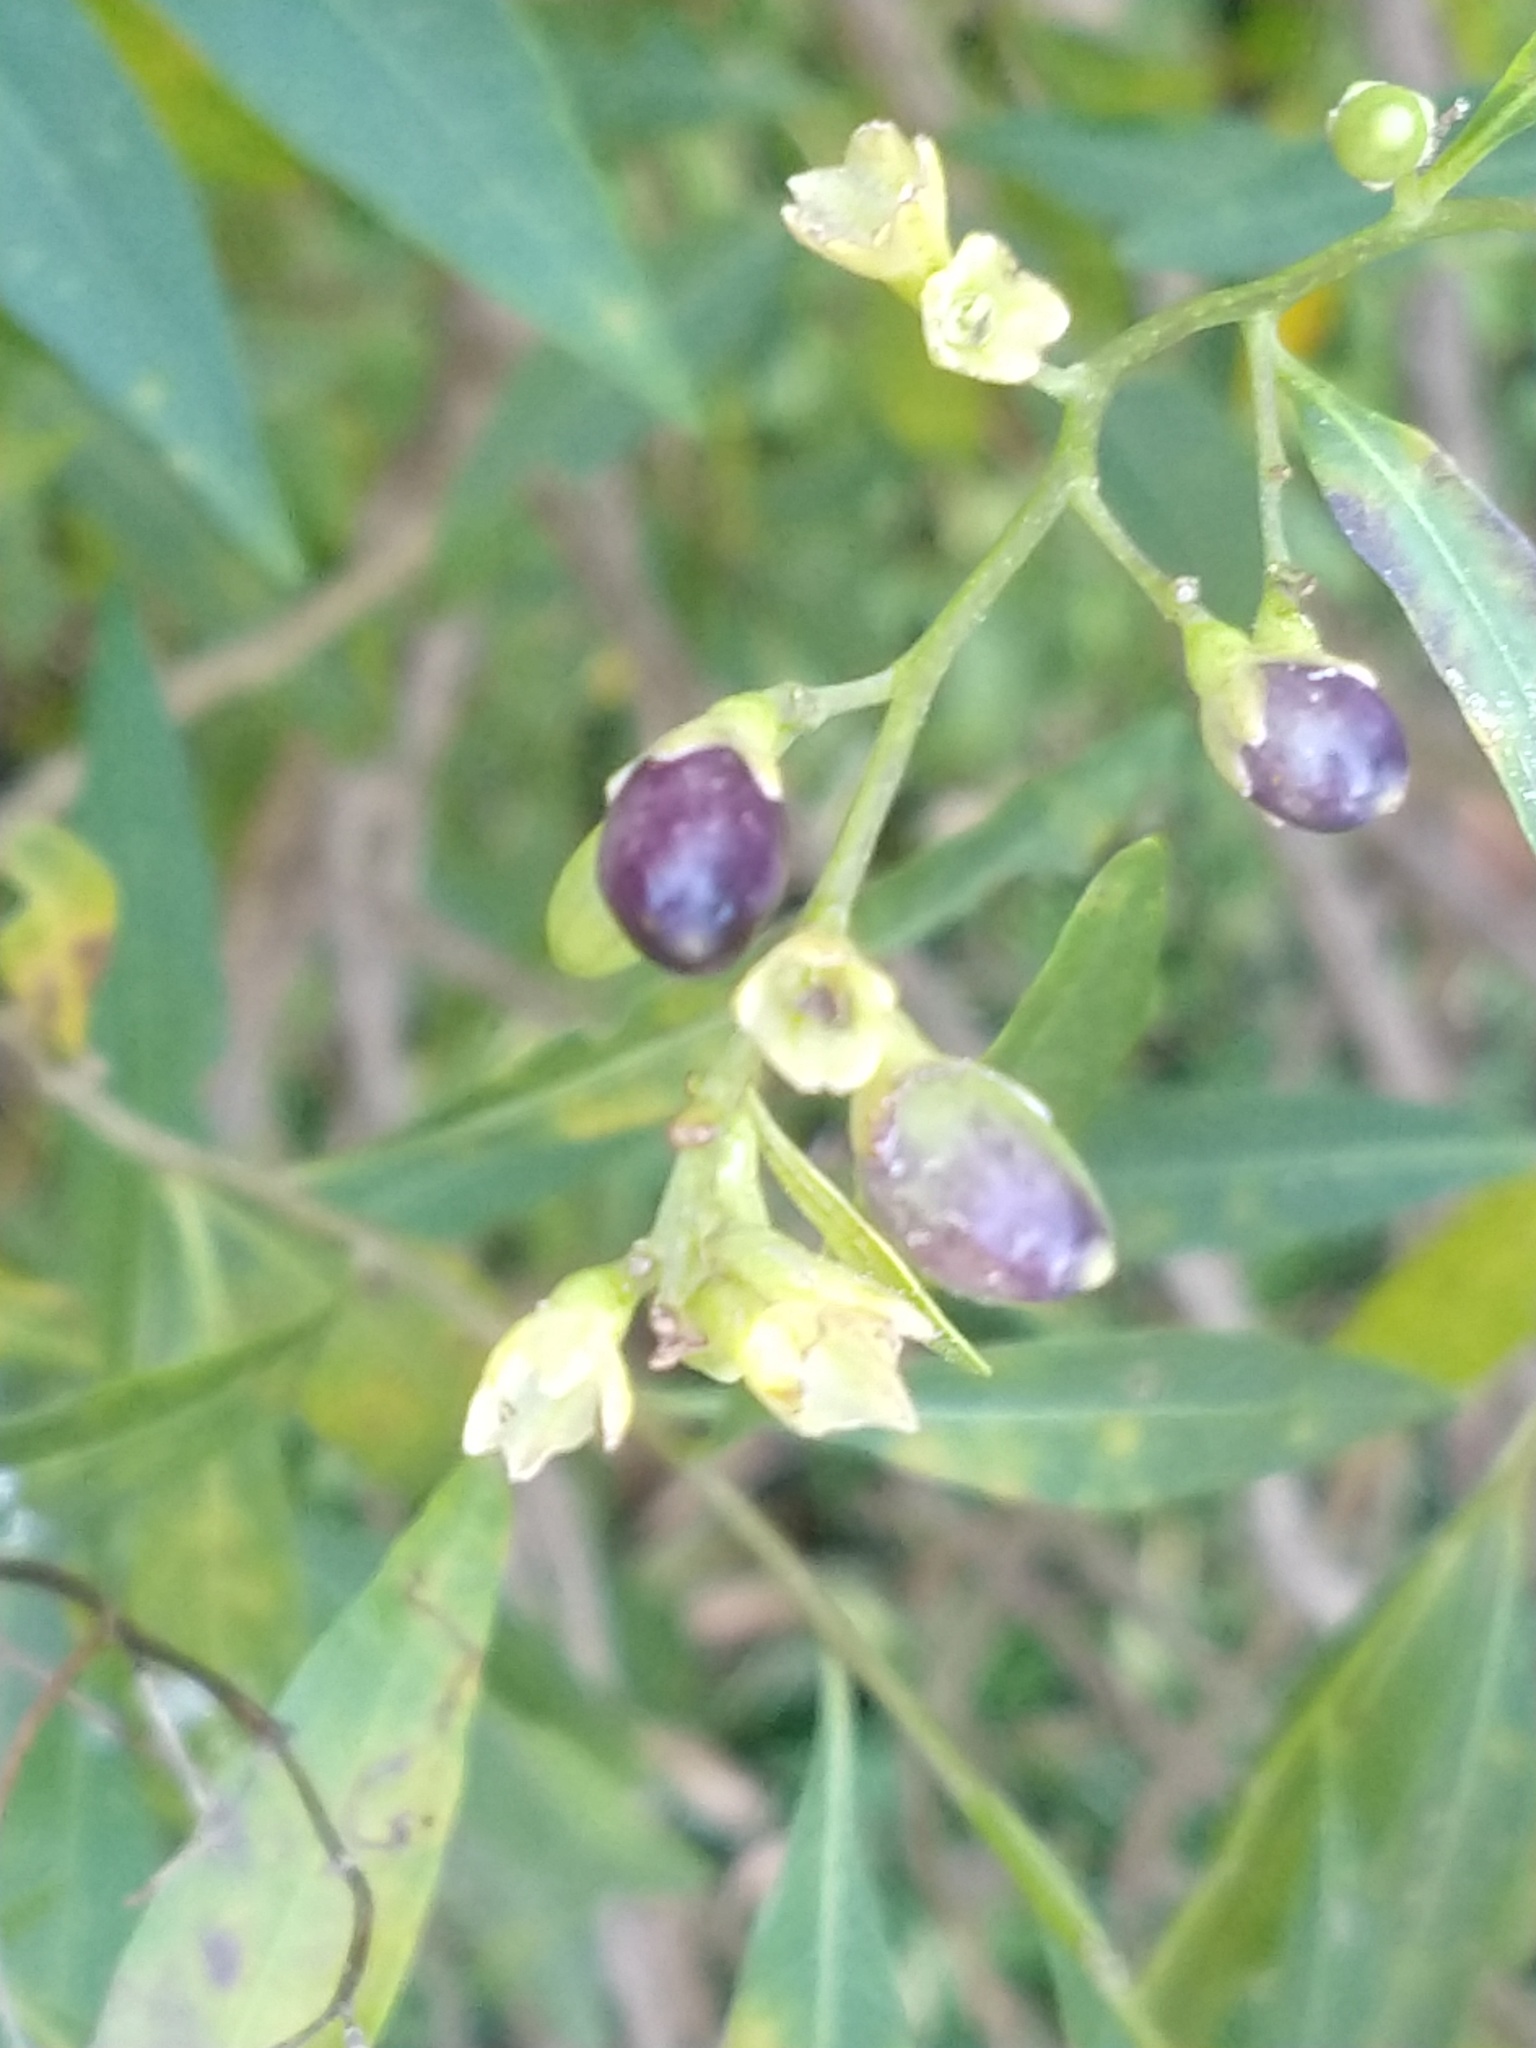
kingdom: Plantae
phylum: Tracheophyta
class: Magnoliopsida
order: Solanales
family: Solanaceae
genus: Cestrum
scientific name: Cestrum parqui
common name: Chilean cestrum
